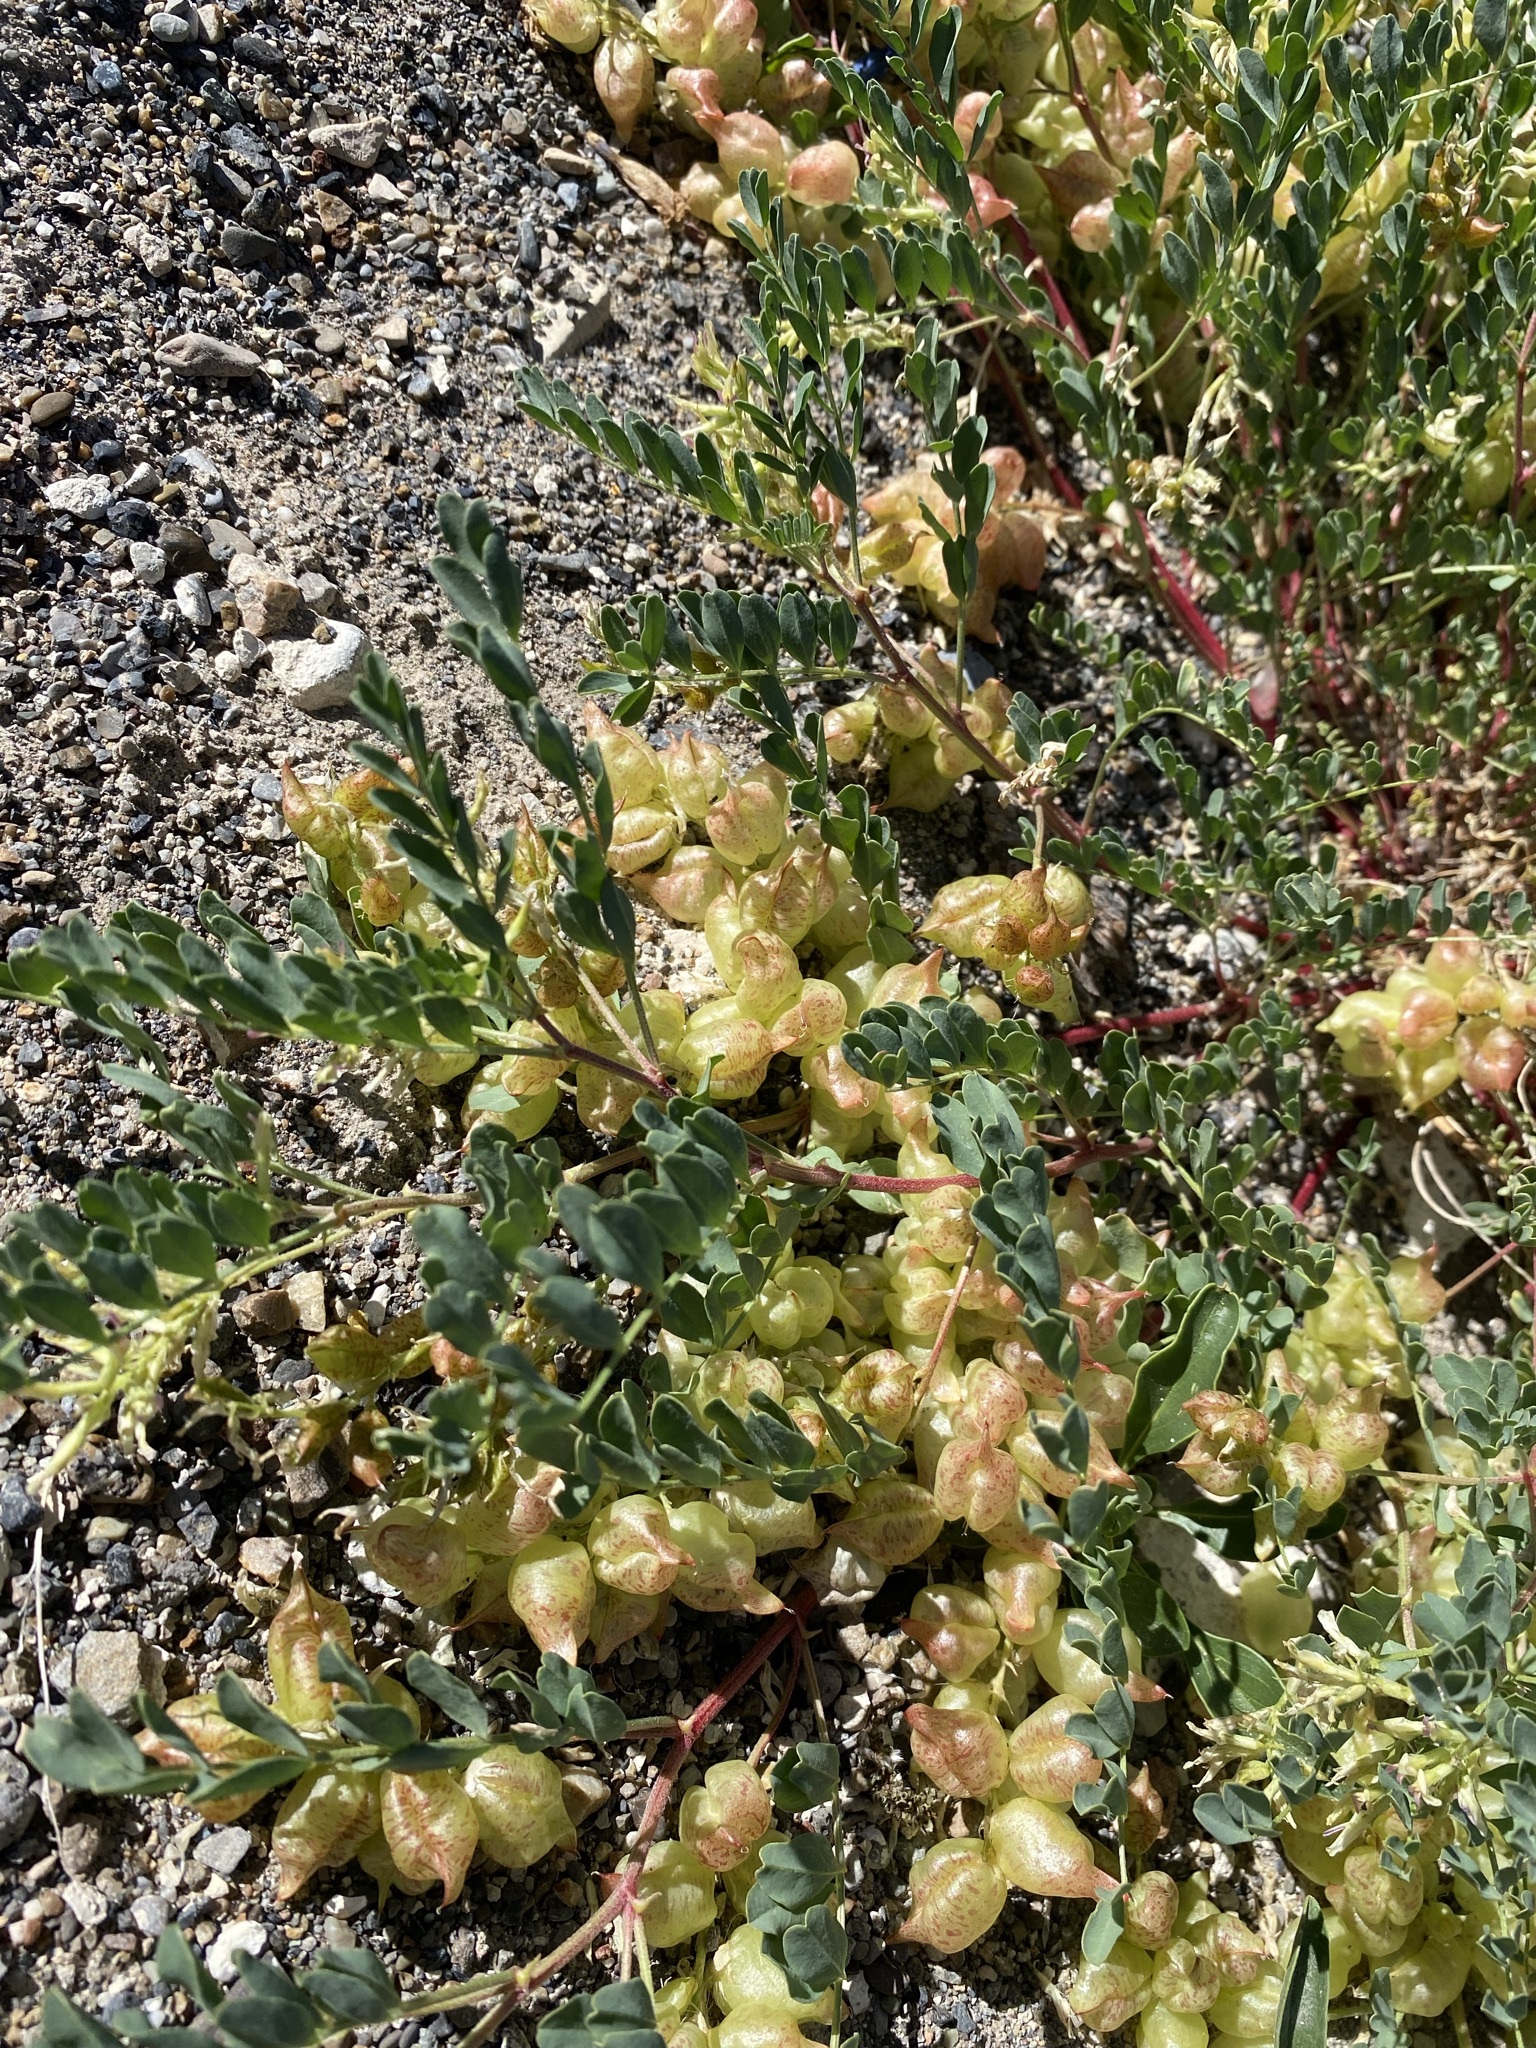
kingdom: Plantae
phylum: Tracheophyta
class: Magnoliopsida
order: Fabales
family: Fabaceae
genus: Astragalus
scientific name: Astragalus lentiginosus
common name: Freckled milkvetch
